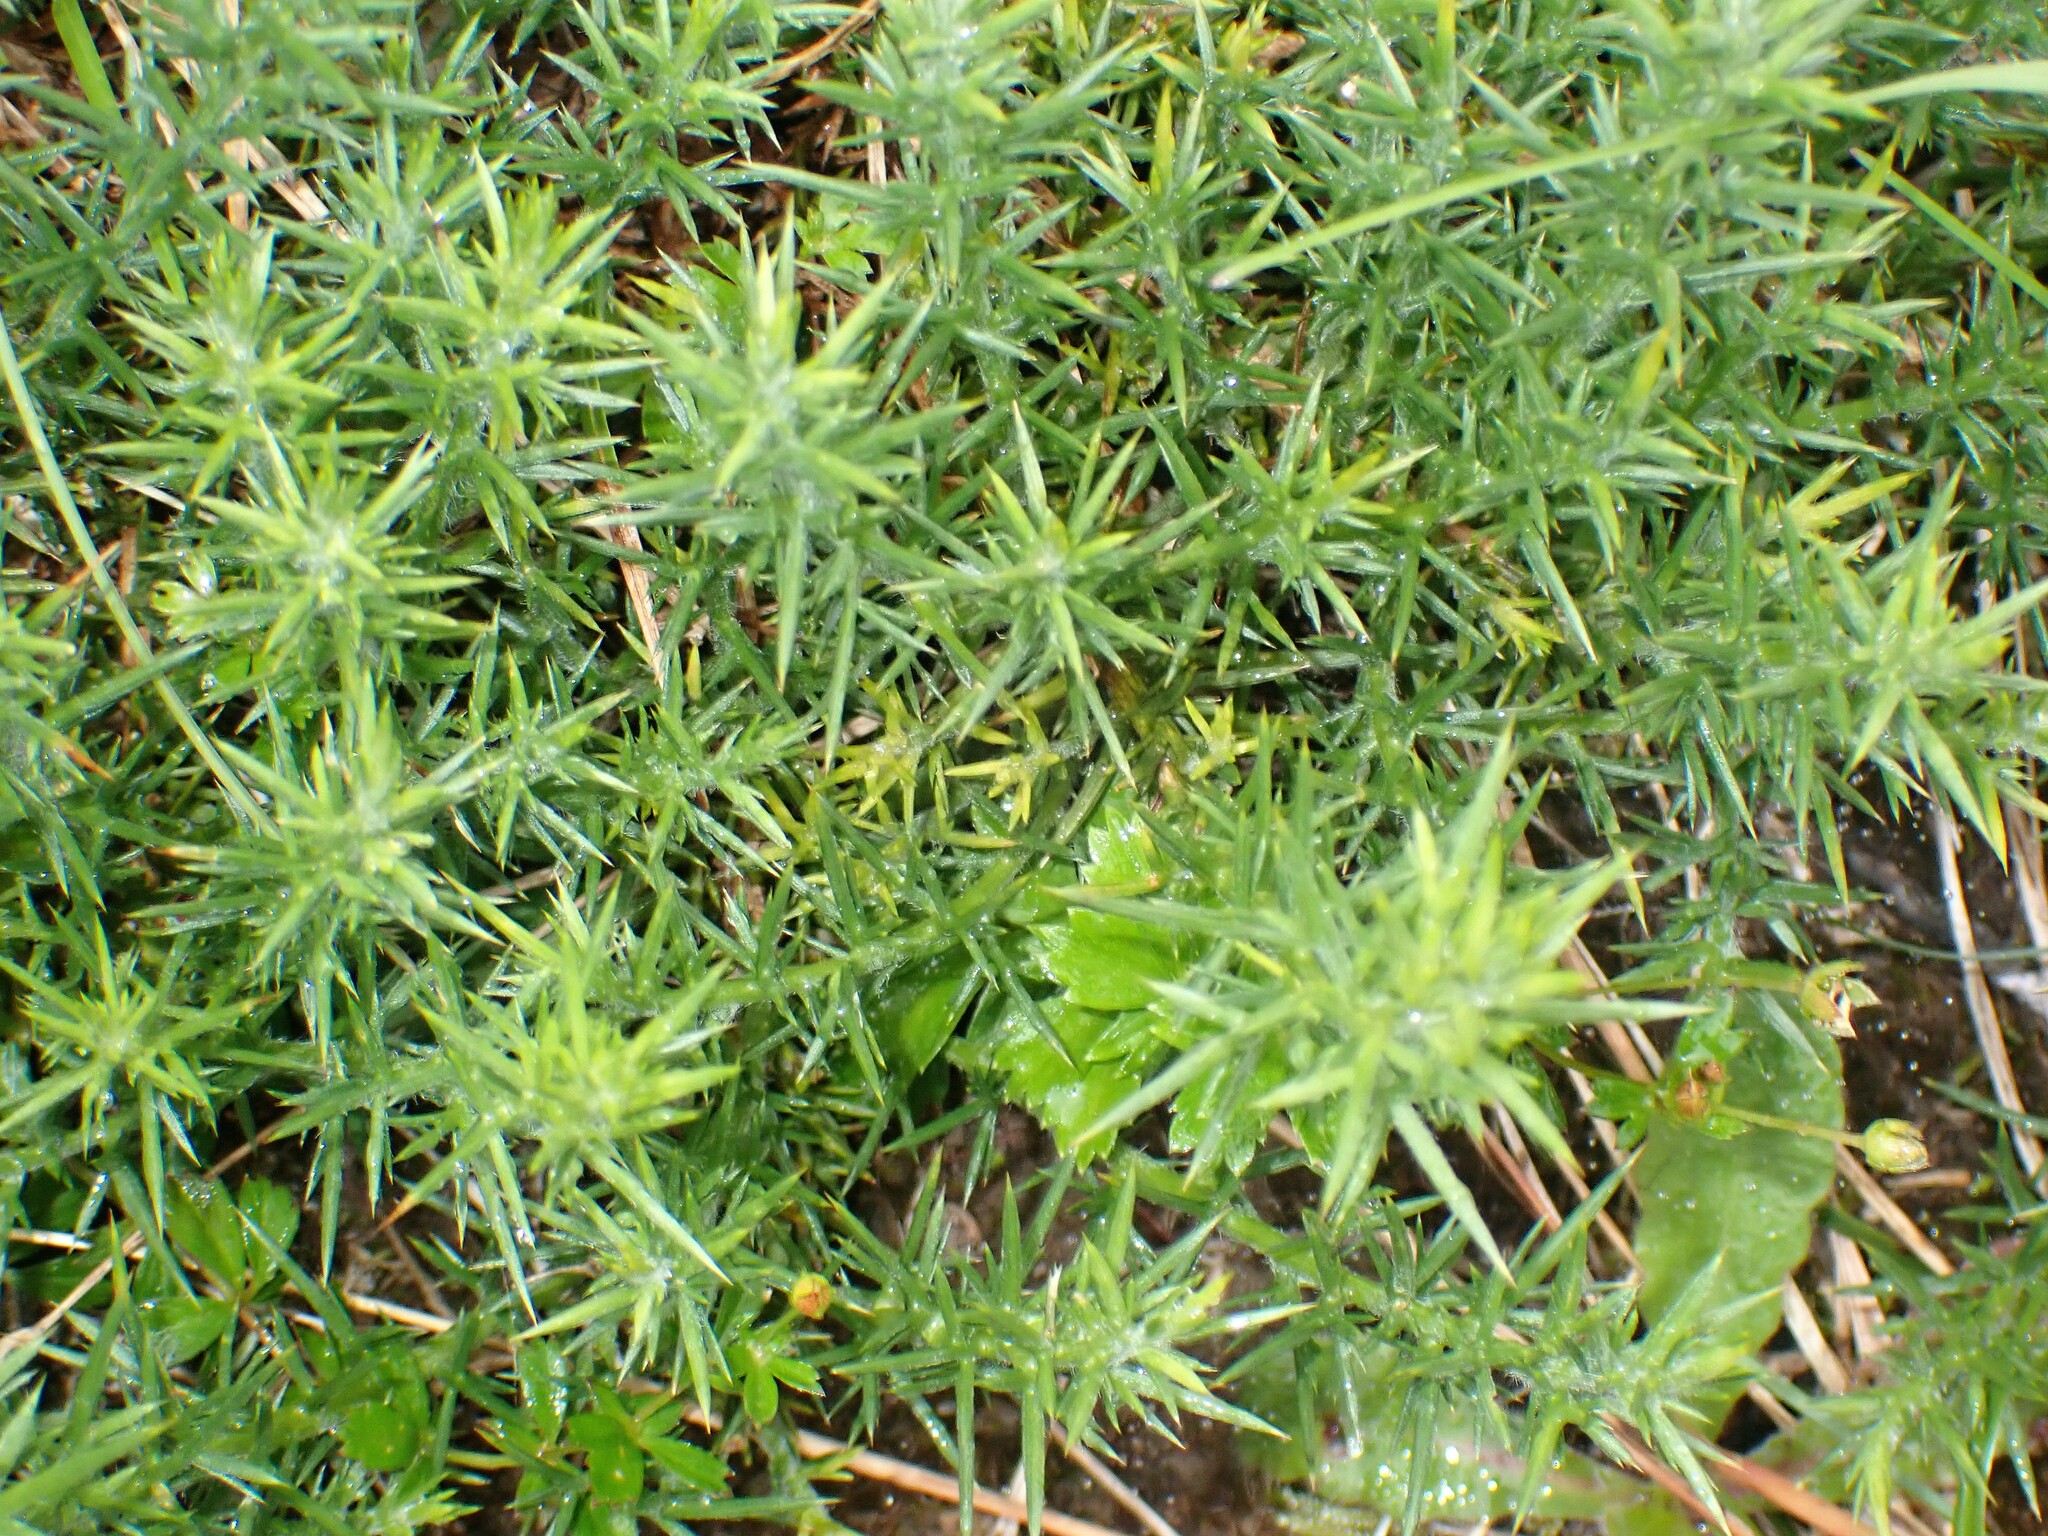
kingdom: Plantae
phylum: Tracheophyta
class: Magnoliopsida
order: Fabales
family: Fabaceae
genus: Ulex
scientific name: Ulex europaeus
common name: Common gorse
